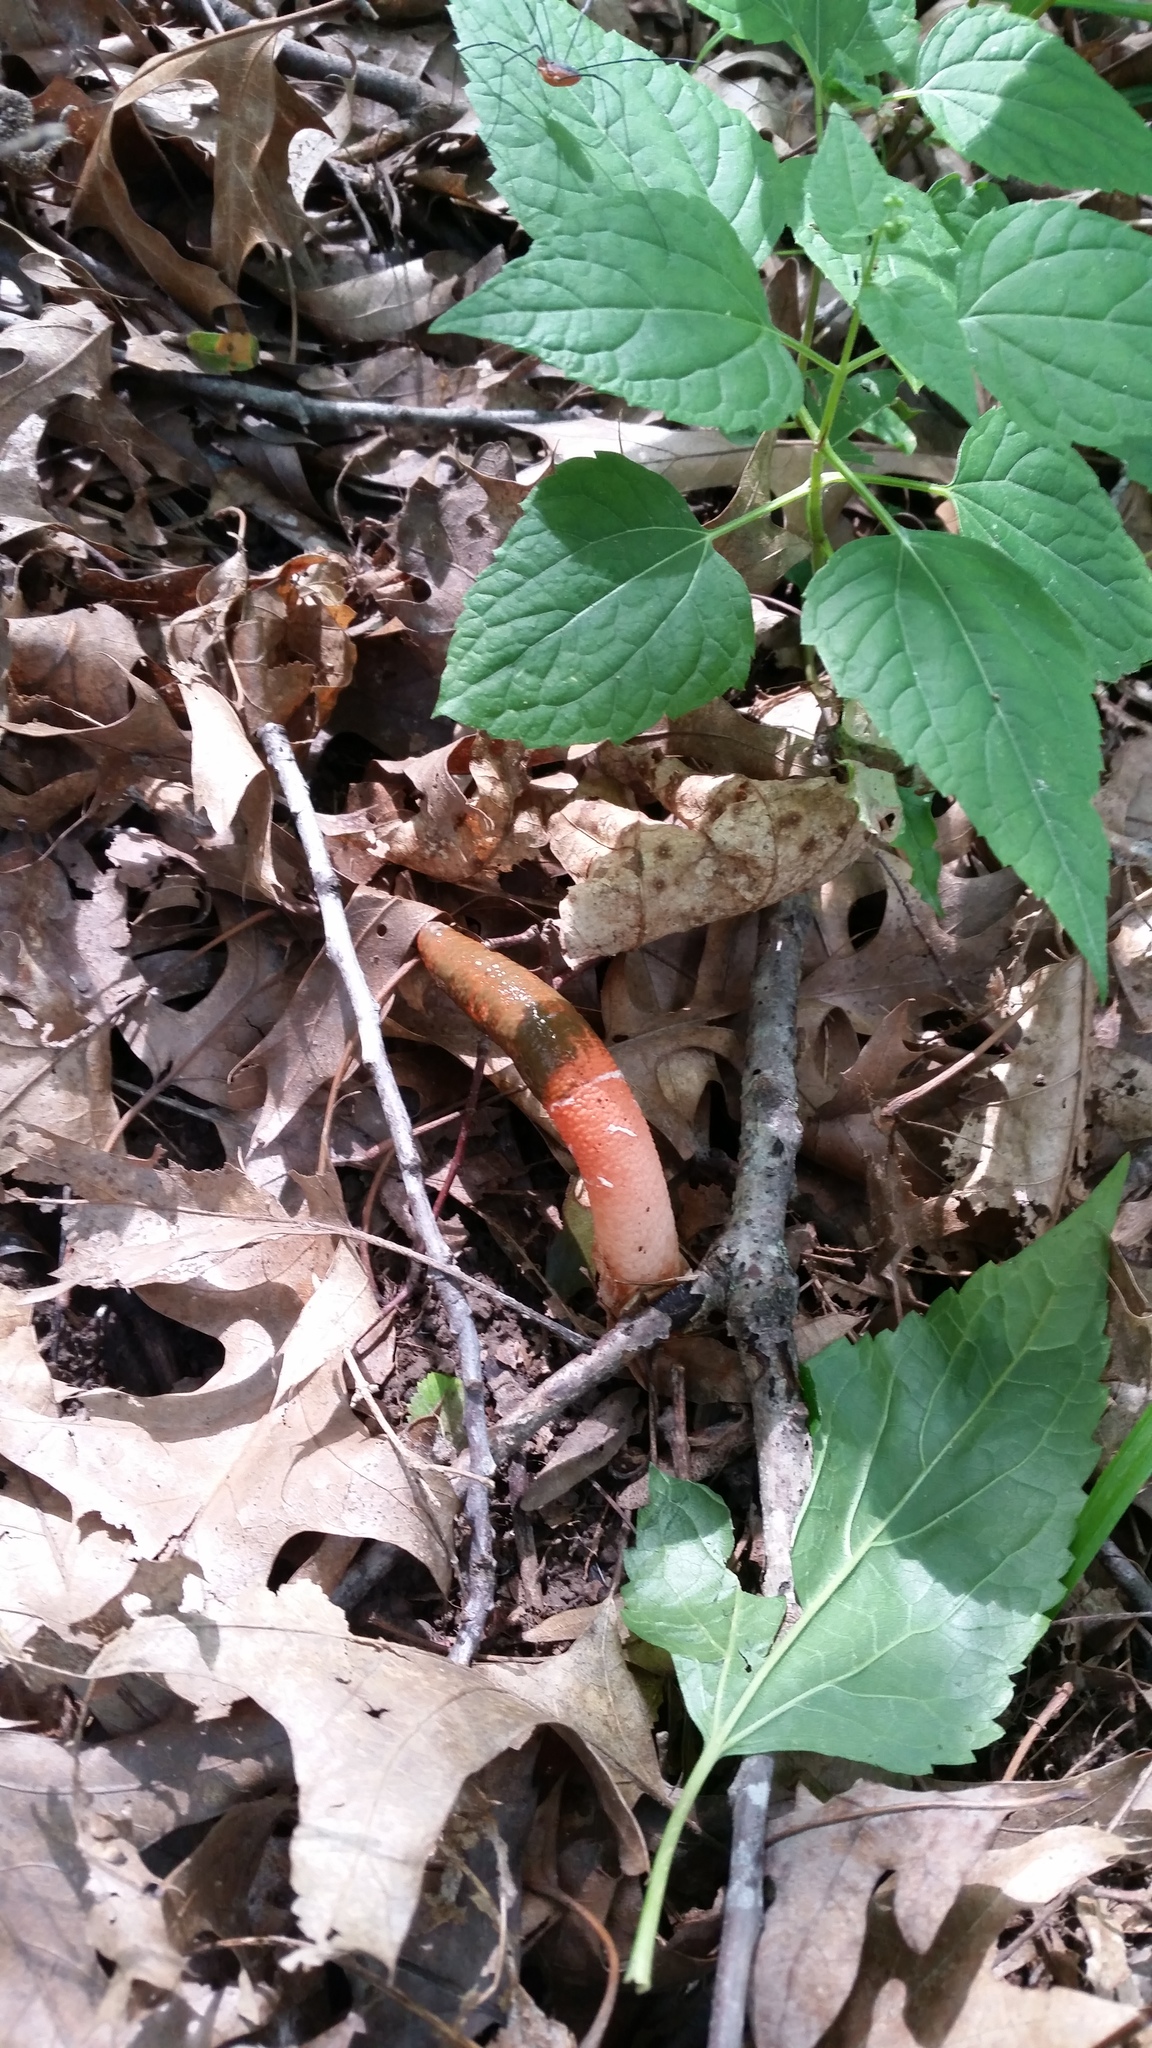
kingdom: Fungi
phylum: Basidiomycota
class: Agaricomycetes
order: Phallales
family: Phallaceae
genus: Mutinus
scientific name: Mutinus elegans
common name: Devil's dipstick
